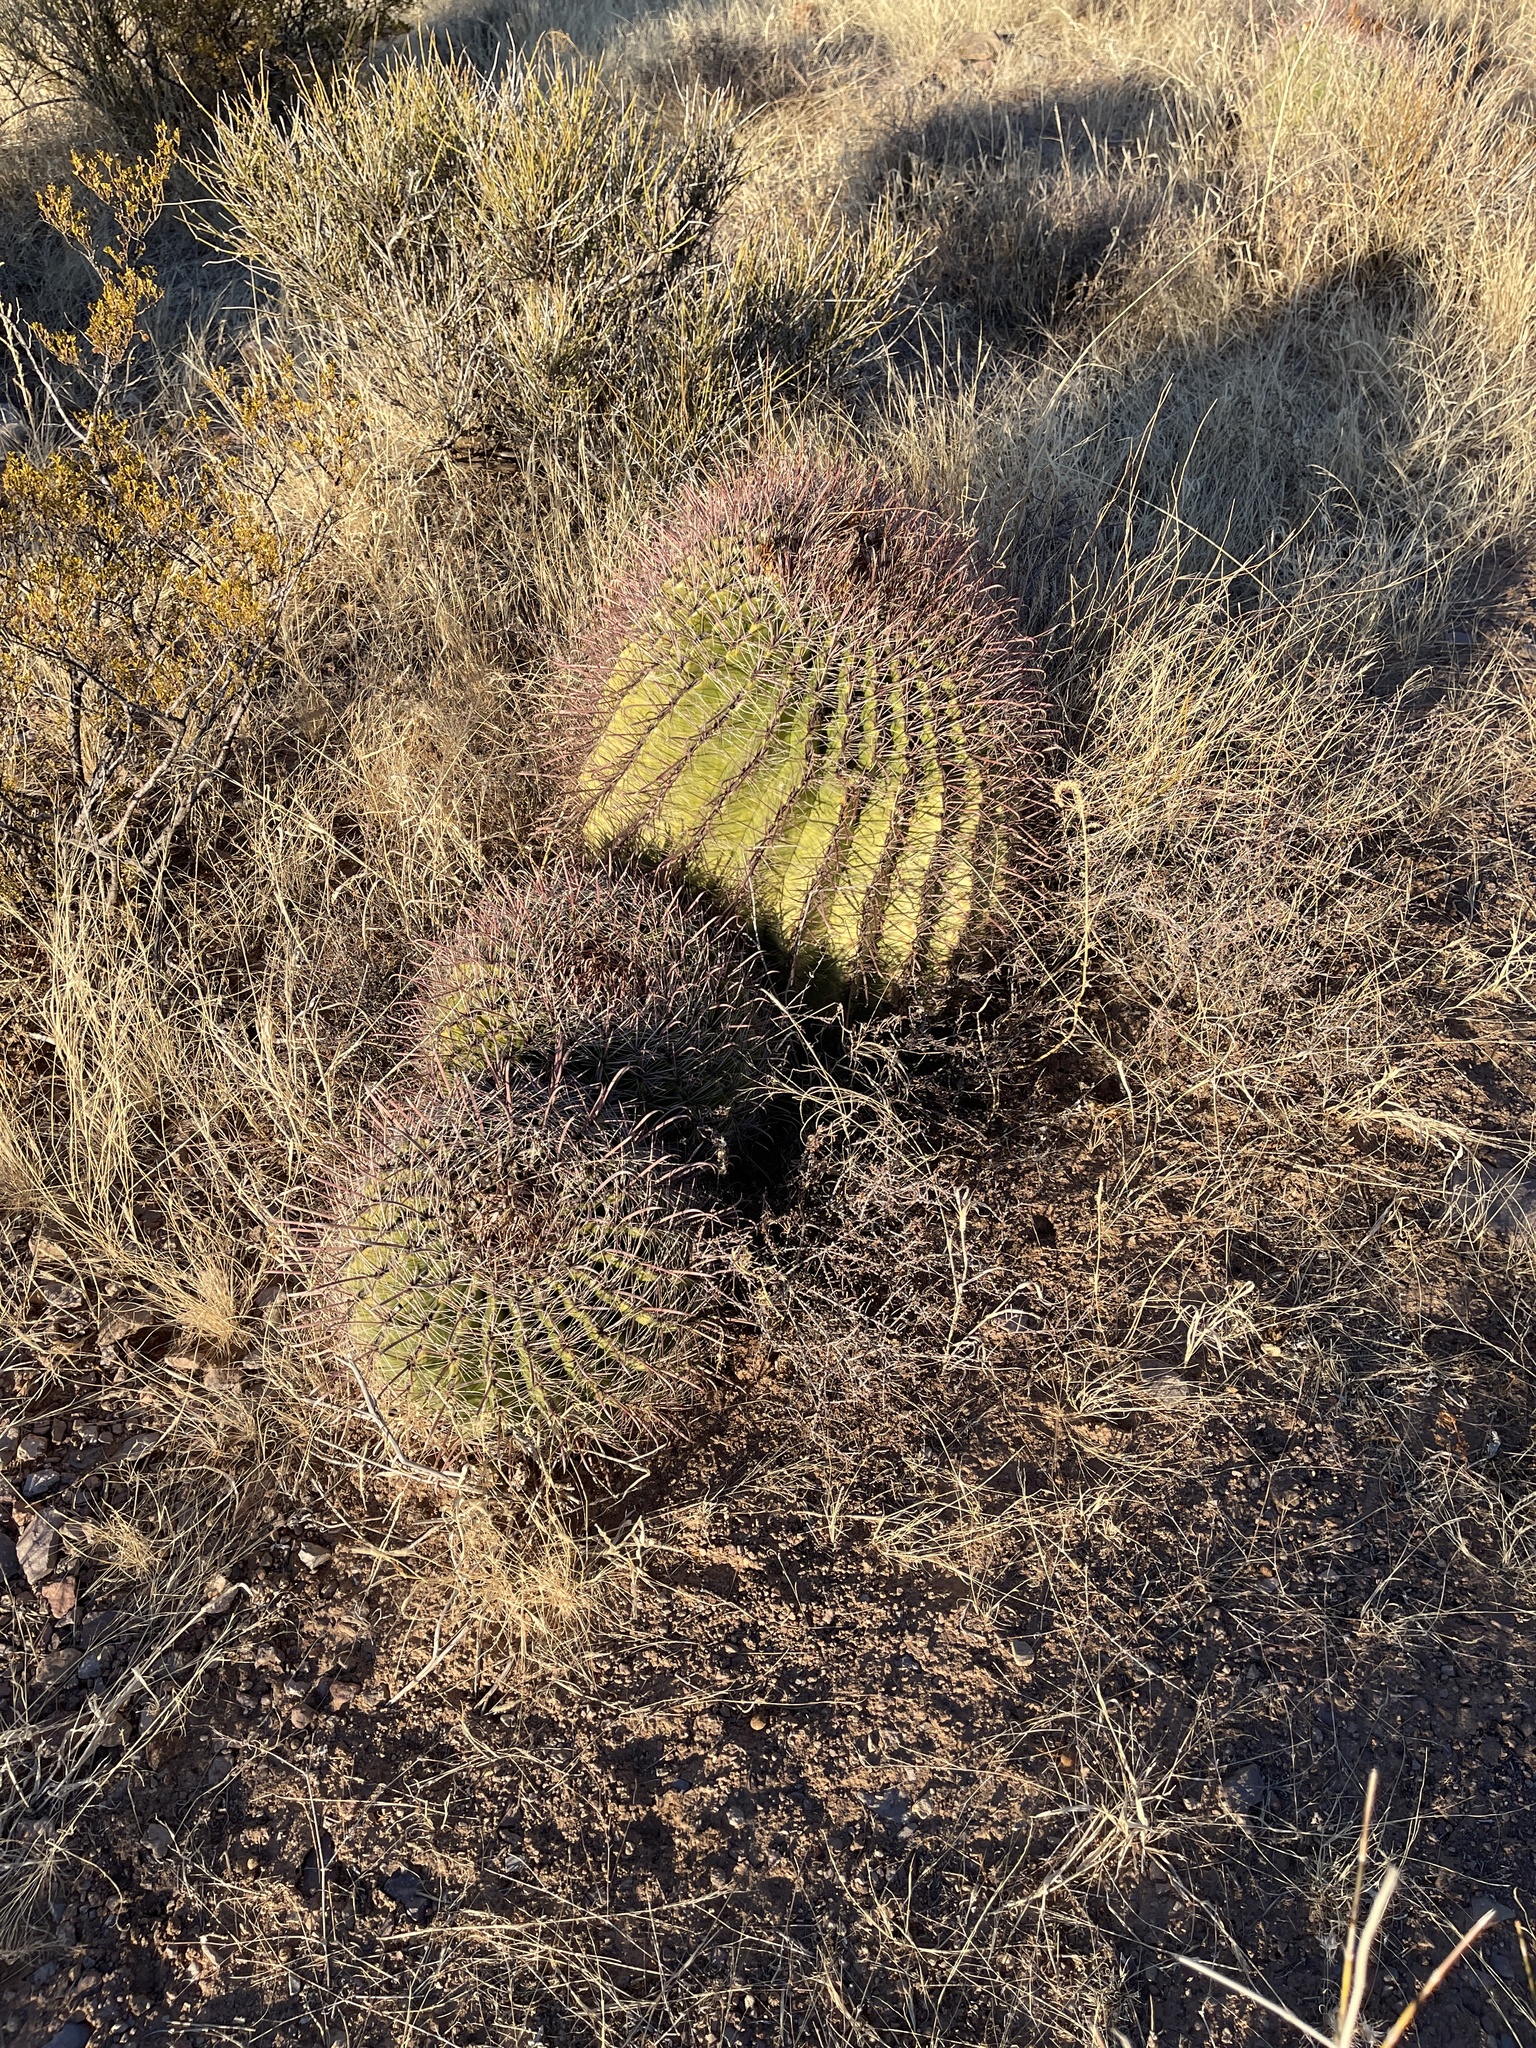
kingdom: Plantae
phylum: Tracheophyta
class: Magnoliopsida
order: Caryophyllales
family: Cactaceae
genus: Ferocactus
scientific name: Ferocactus wislizeni
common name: Candy barrel cactus
